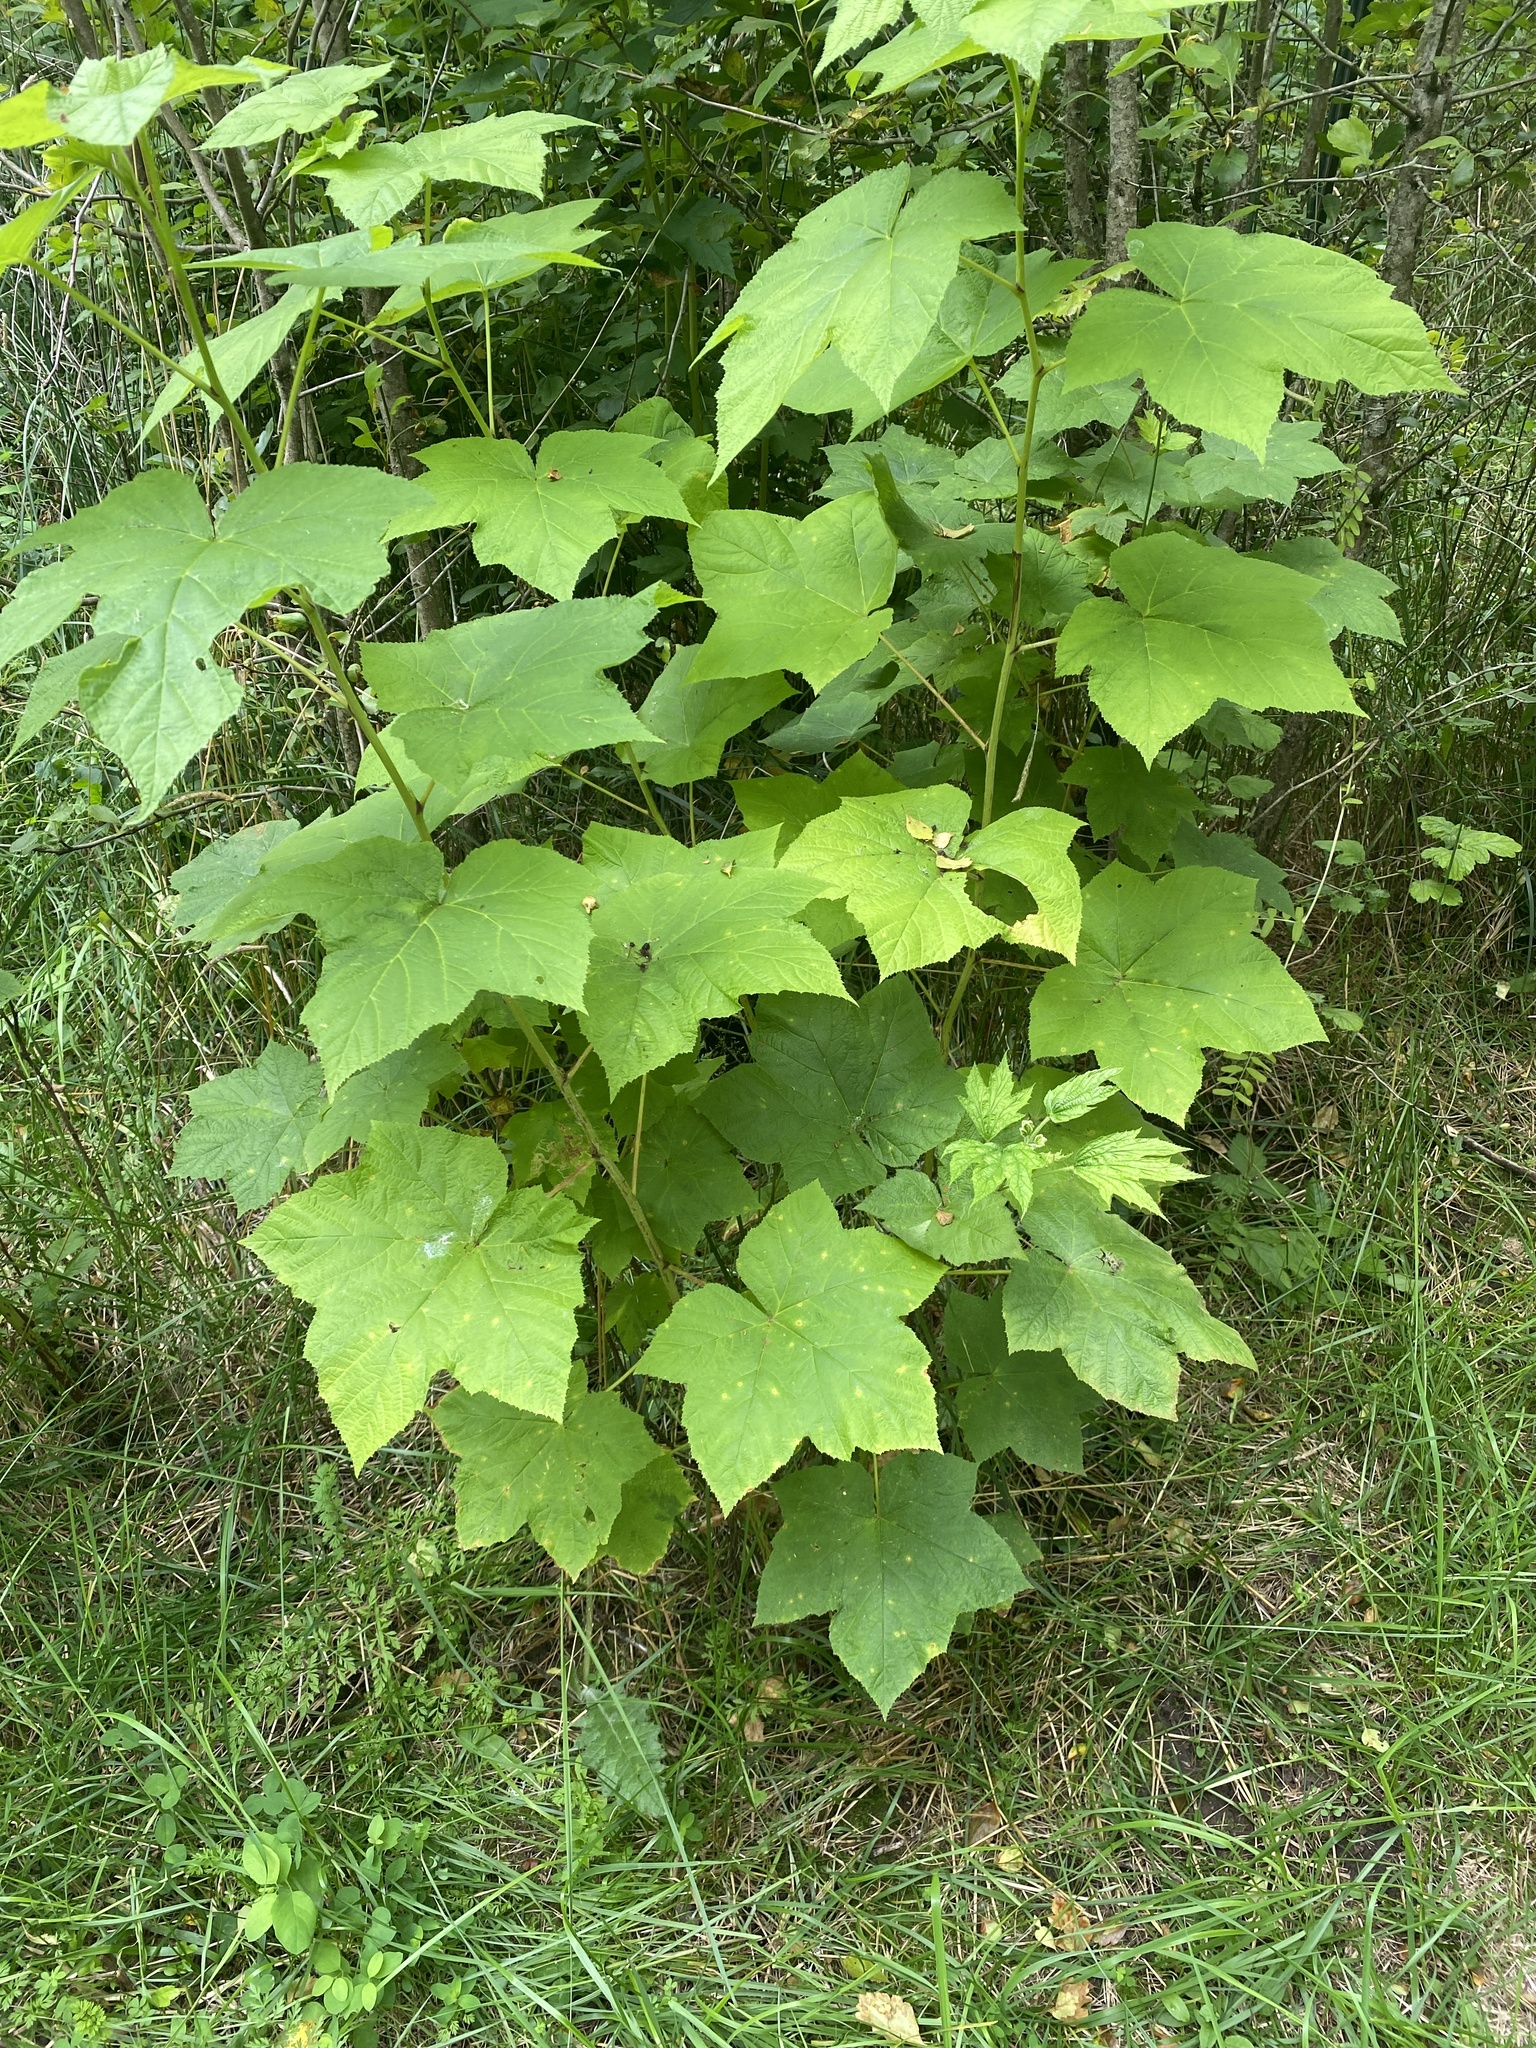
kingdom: Plantae
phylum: Tracheophyta
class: Magnoliopsida
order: Rosales
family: Rosaceae
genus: Rubus
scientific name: Rubus parviflorus
